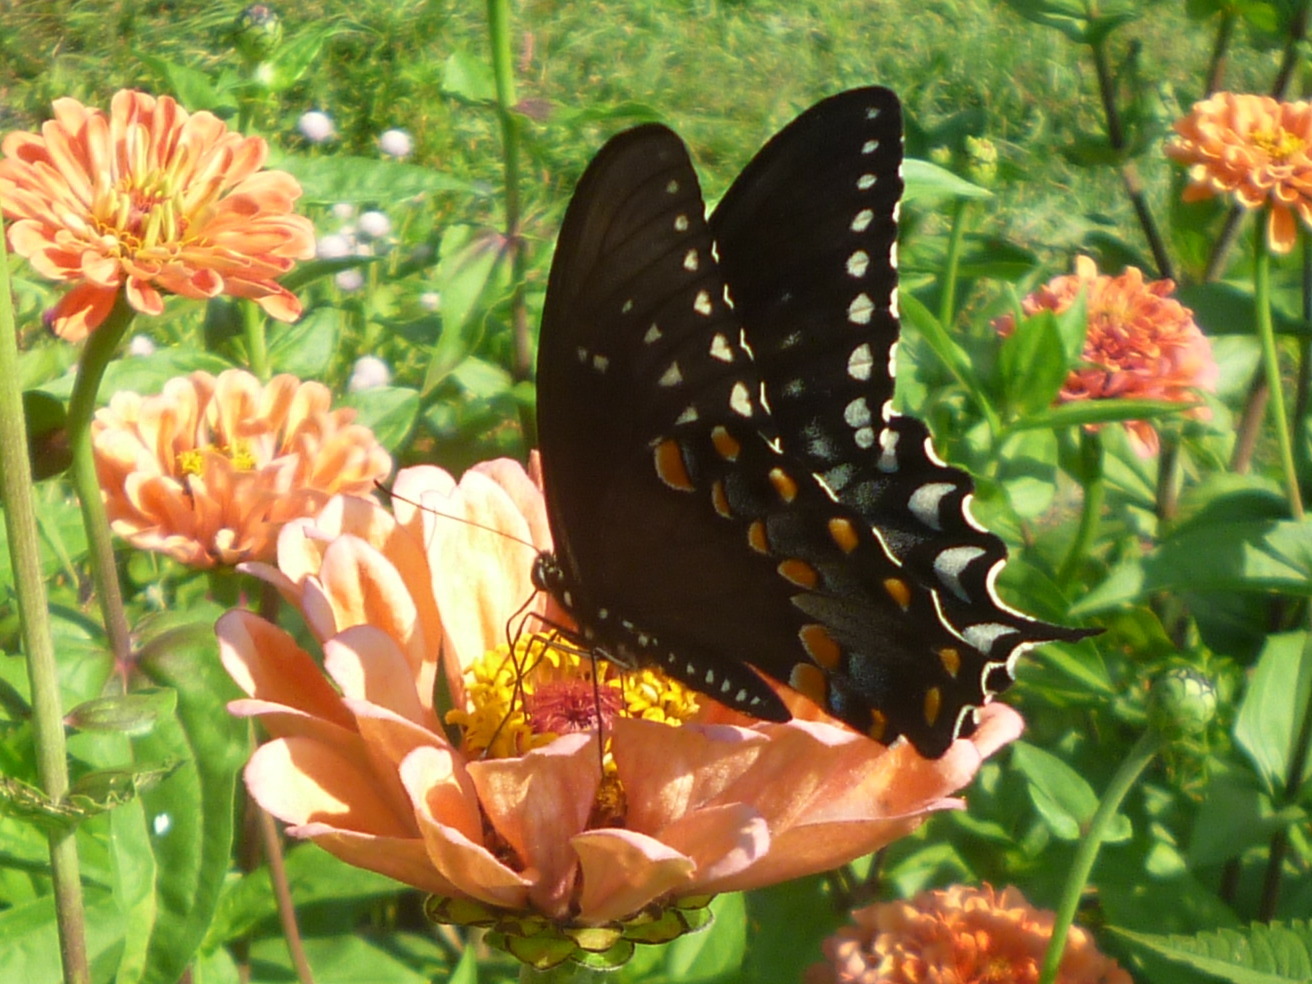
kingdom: Animalia
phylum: Arthropoda
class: Insecta
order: Lepidoptera
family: Papilionidae
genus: Papilio
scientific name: Papilio troilus
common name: Spicebush swallowtail
